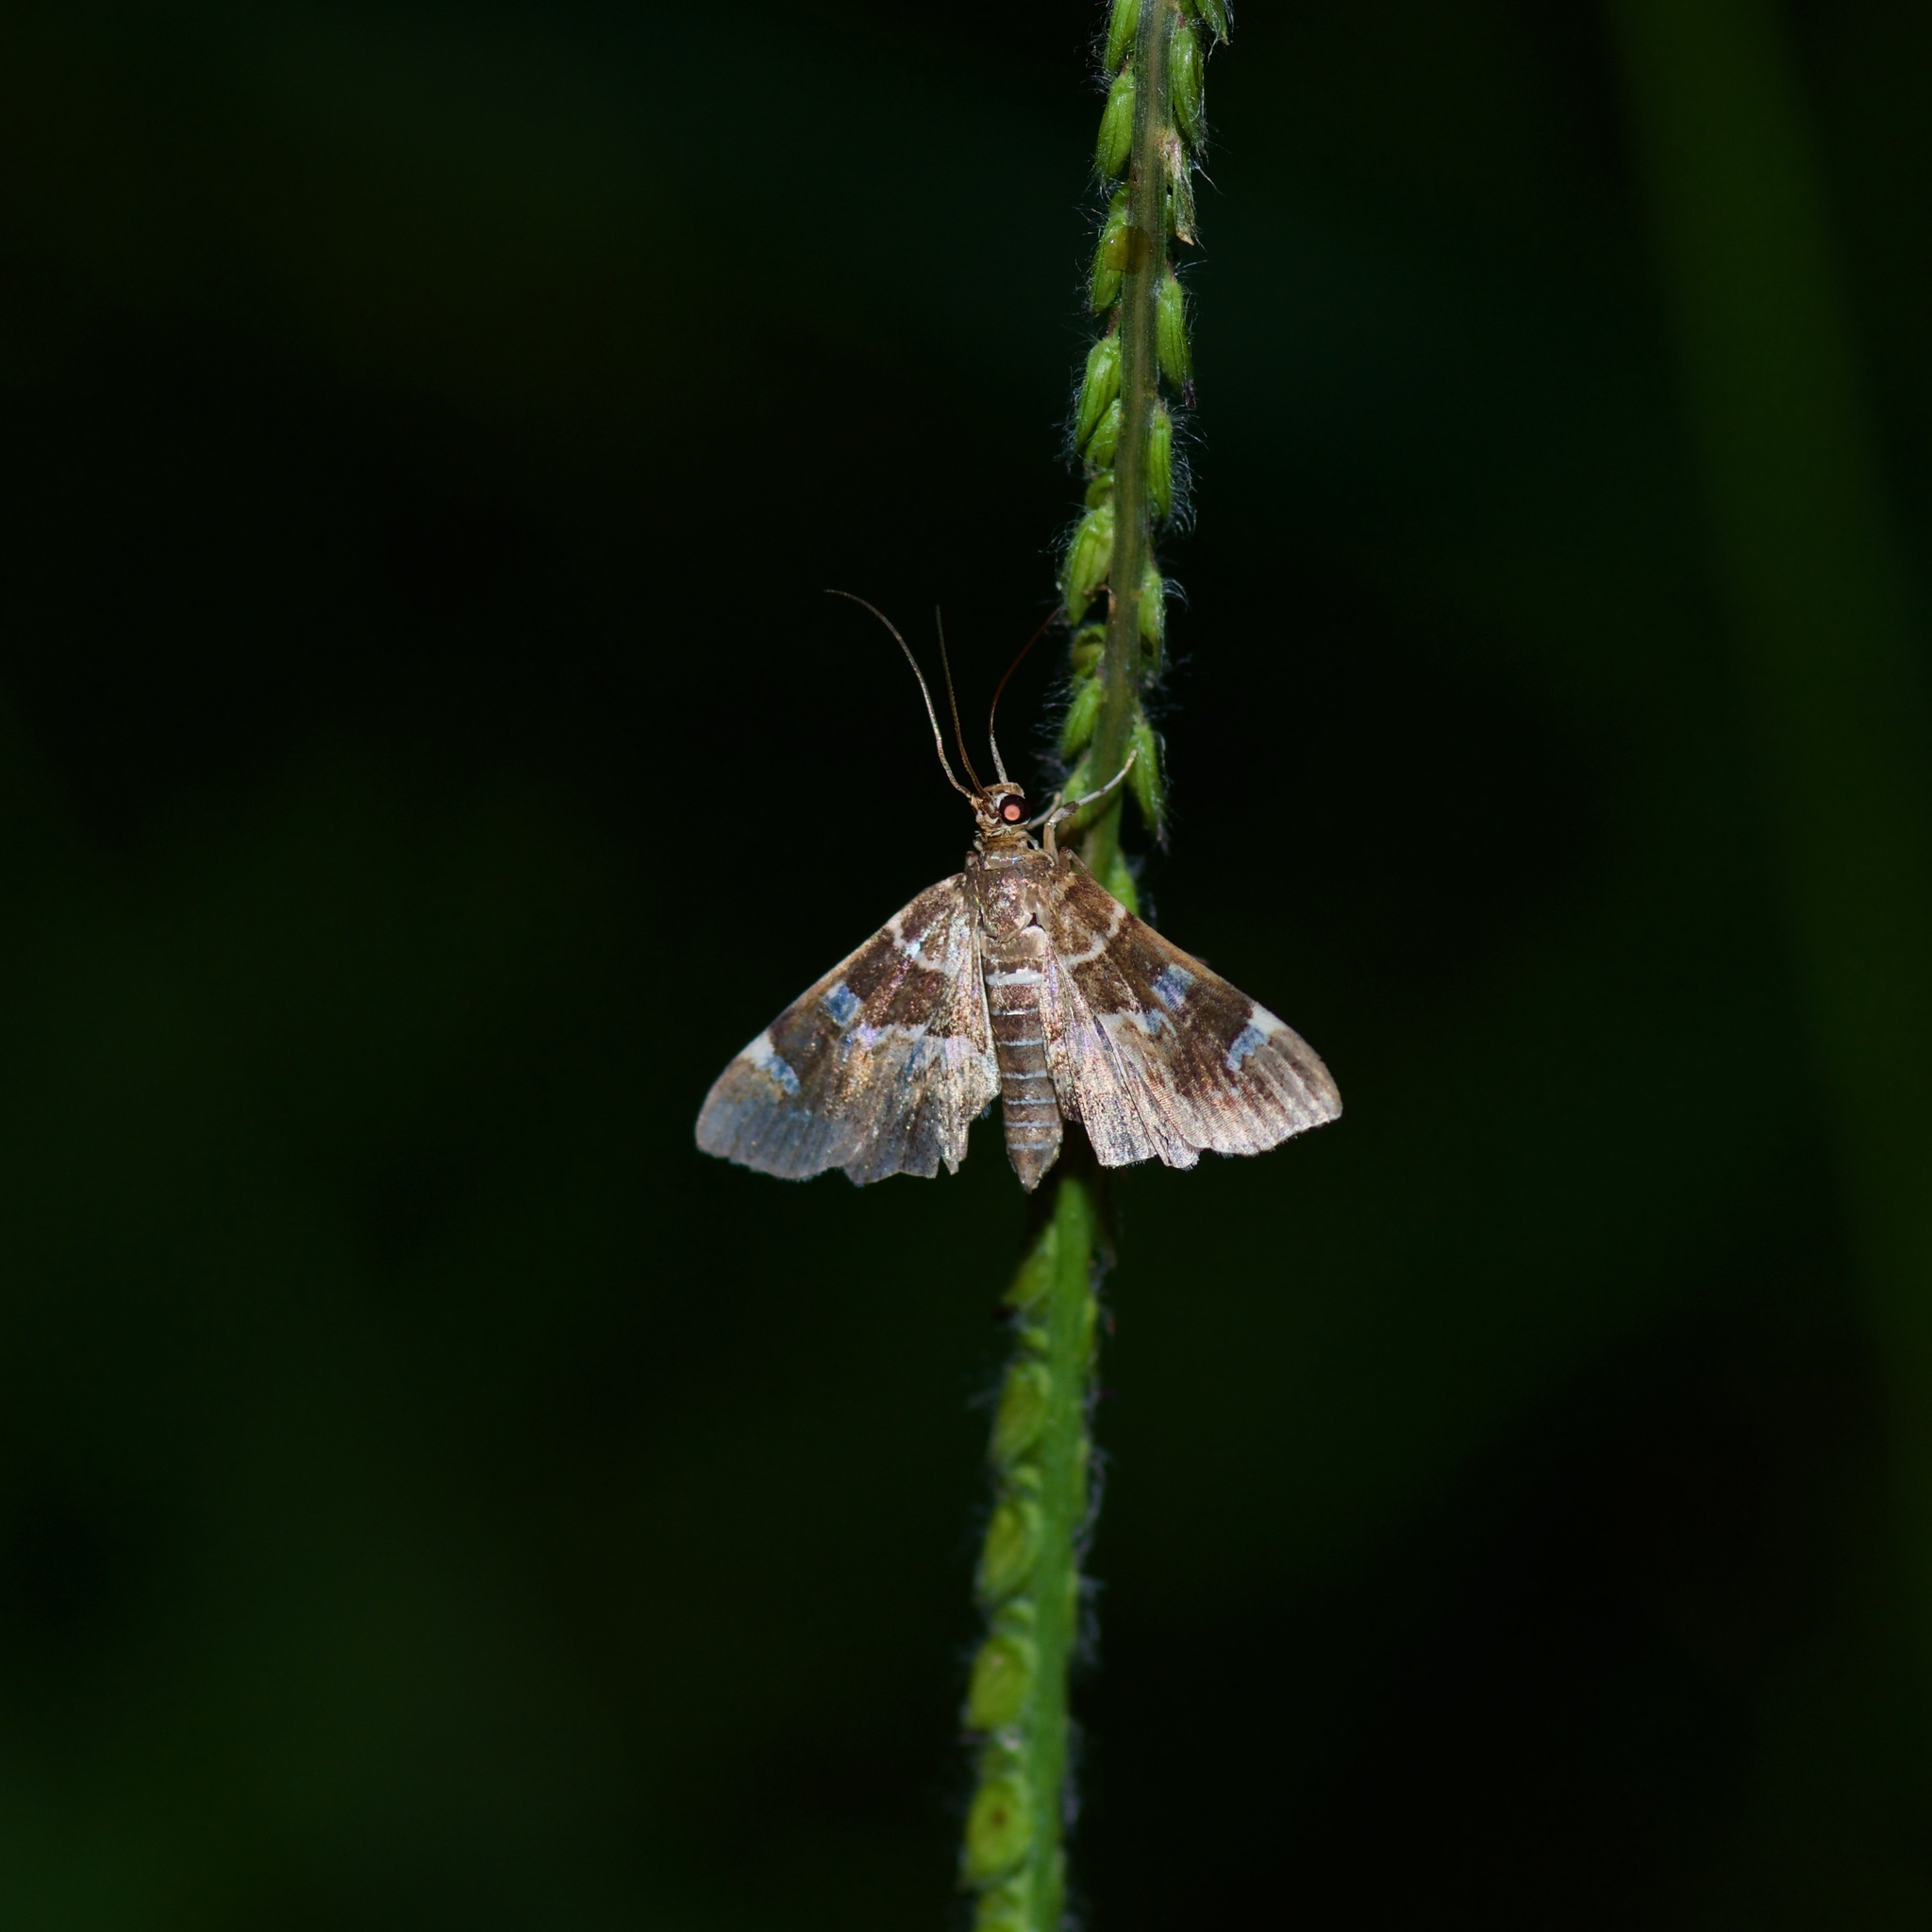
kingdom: Animalia
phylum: Arthropoda
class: Insecta
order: Lepidoptera
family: Crambidae
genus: Hymenia
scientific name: Hymenia perspectalis
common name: Spotted beet webworm
